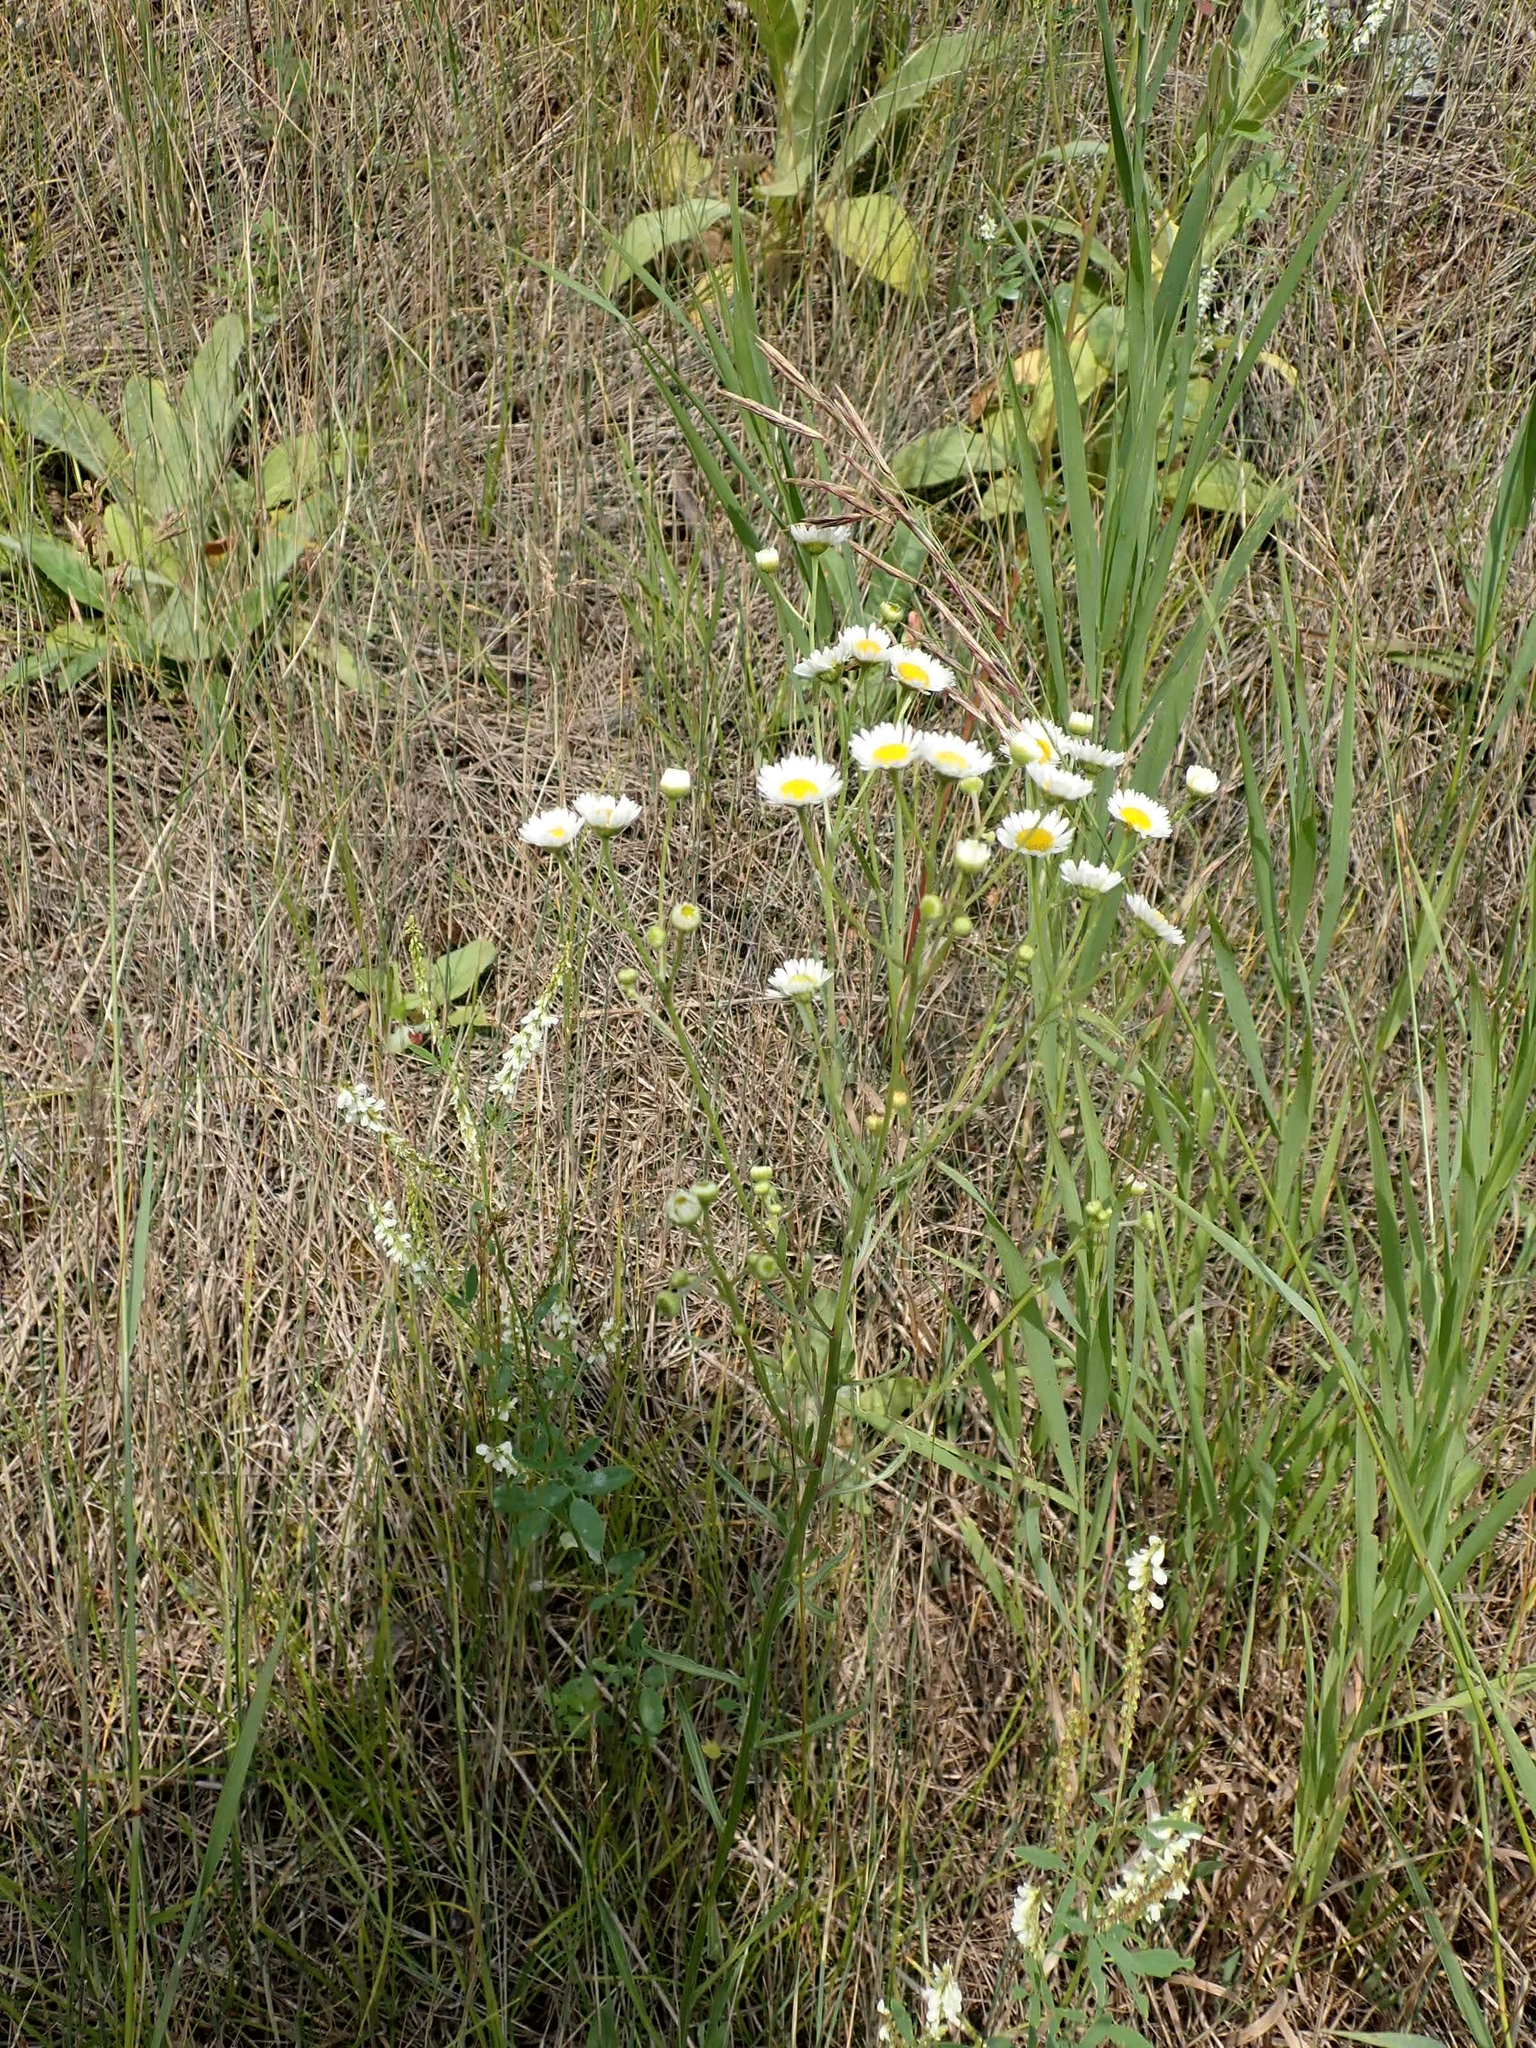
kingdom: Plantae
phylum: Tracheophyta
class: Magnoliopsida
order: Asterales
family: Asteraceae
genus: Erigeron
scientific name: Erigeron strigosus
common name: Common eastern fleabane
